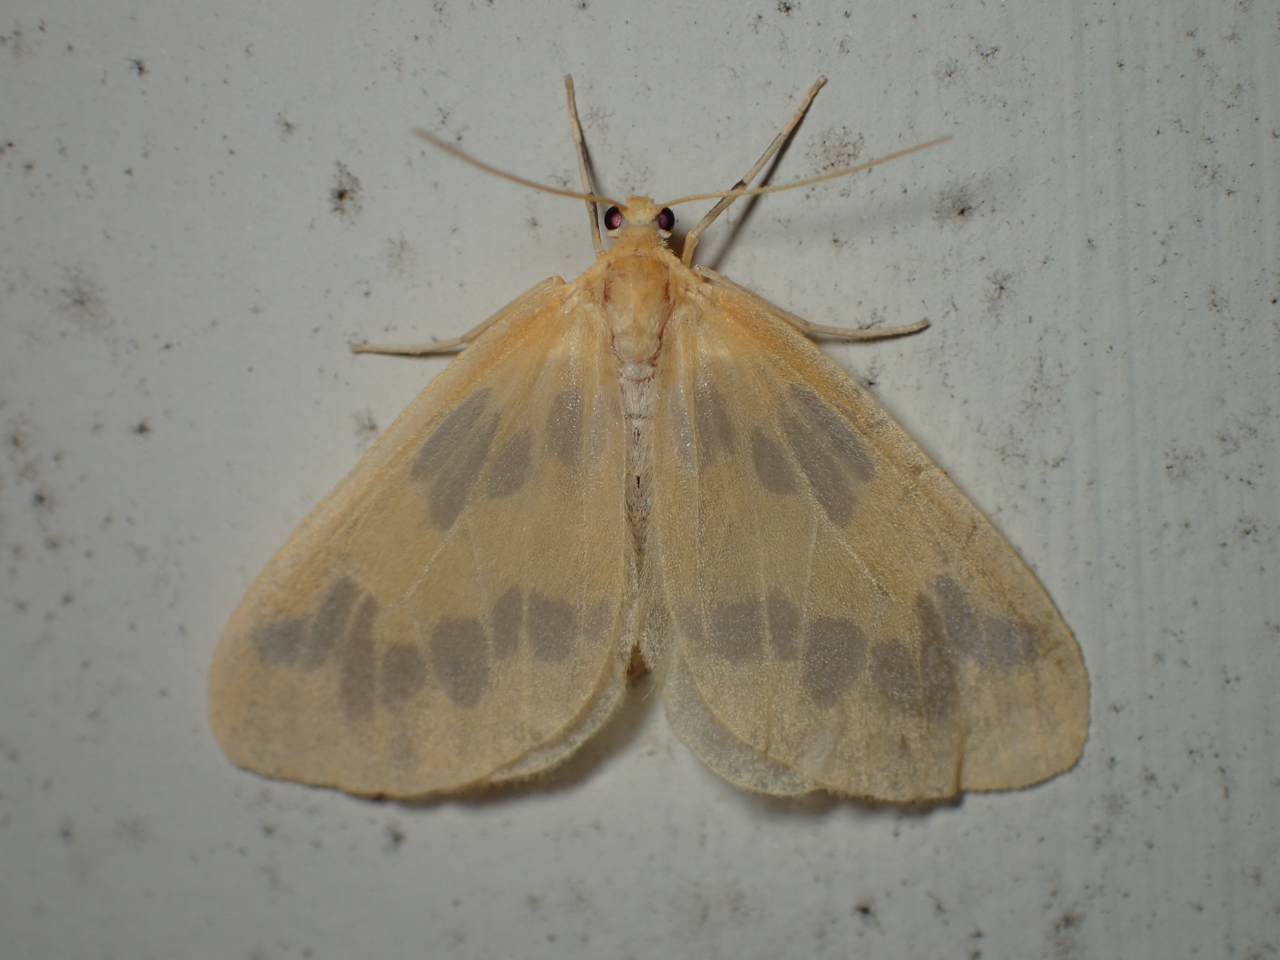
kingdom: Animalia
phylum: Arthropoda
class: Insecta
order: Lepidoptera
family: Geometridae
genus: Eubaphe
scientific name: Eubaphe mendica
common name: Beggar
